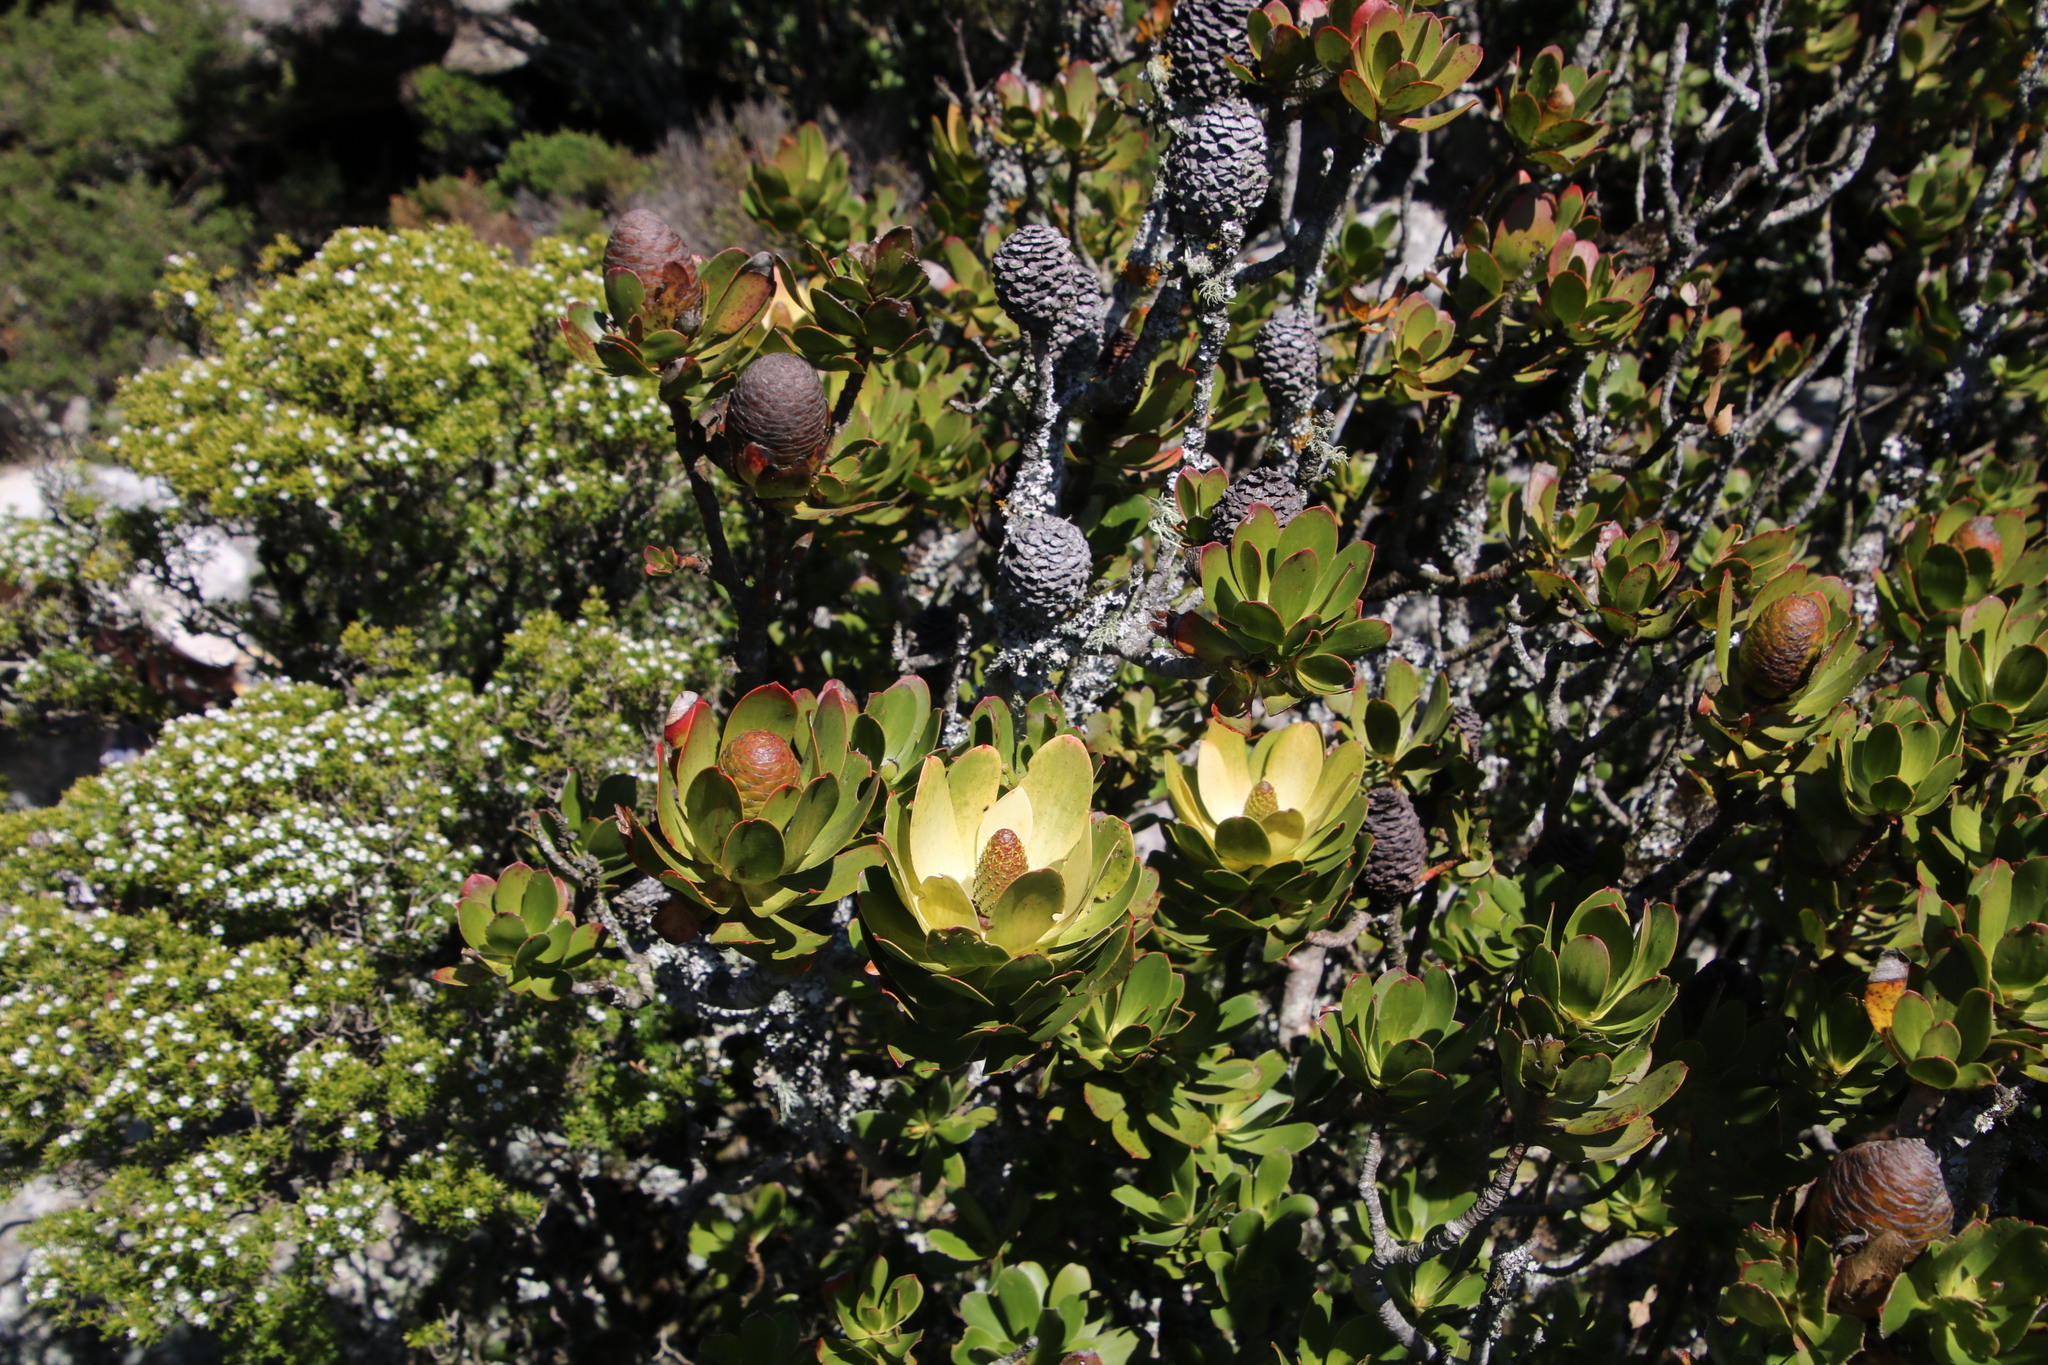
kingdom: Plantae
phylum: Tracheophyta
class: Magnoliopsida
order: Proteales
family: Proteaceae
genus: Leucadendron
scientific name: Leucadendron strobilinum
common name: Mountain rose
